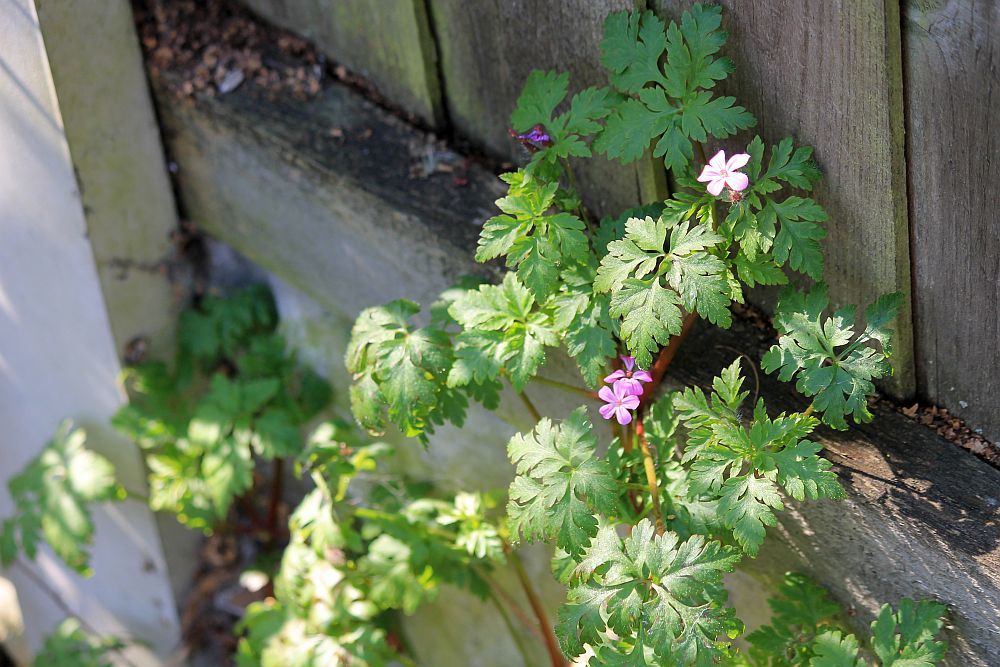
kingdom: Plantae
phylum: Tracheophyta
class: Magnoliopsida
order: Geraniales
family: Geraniaceae
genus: Geranium
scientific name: Geranium robertianum
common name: Herb-robert
